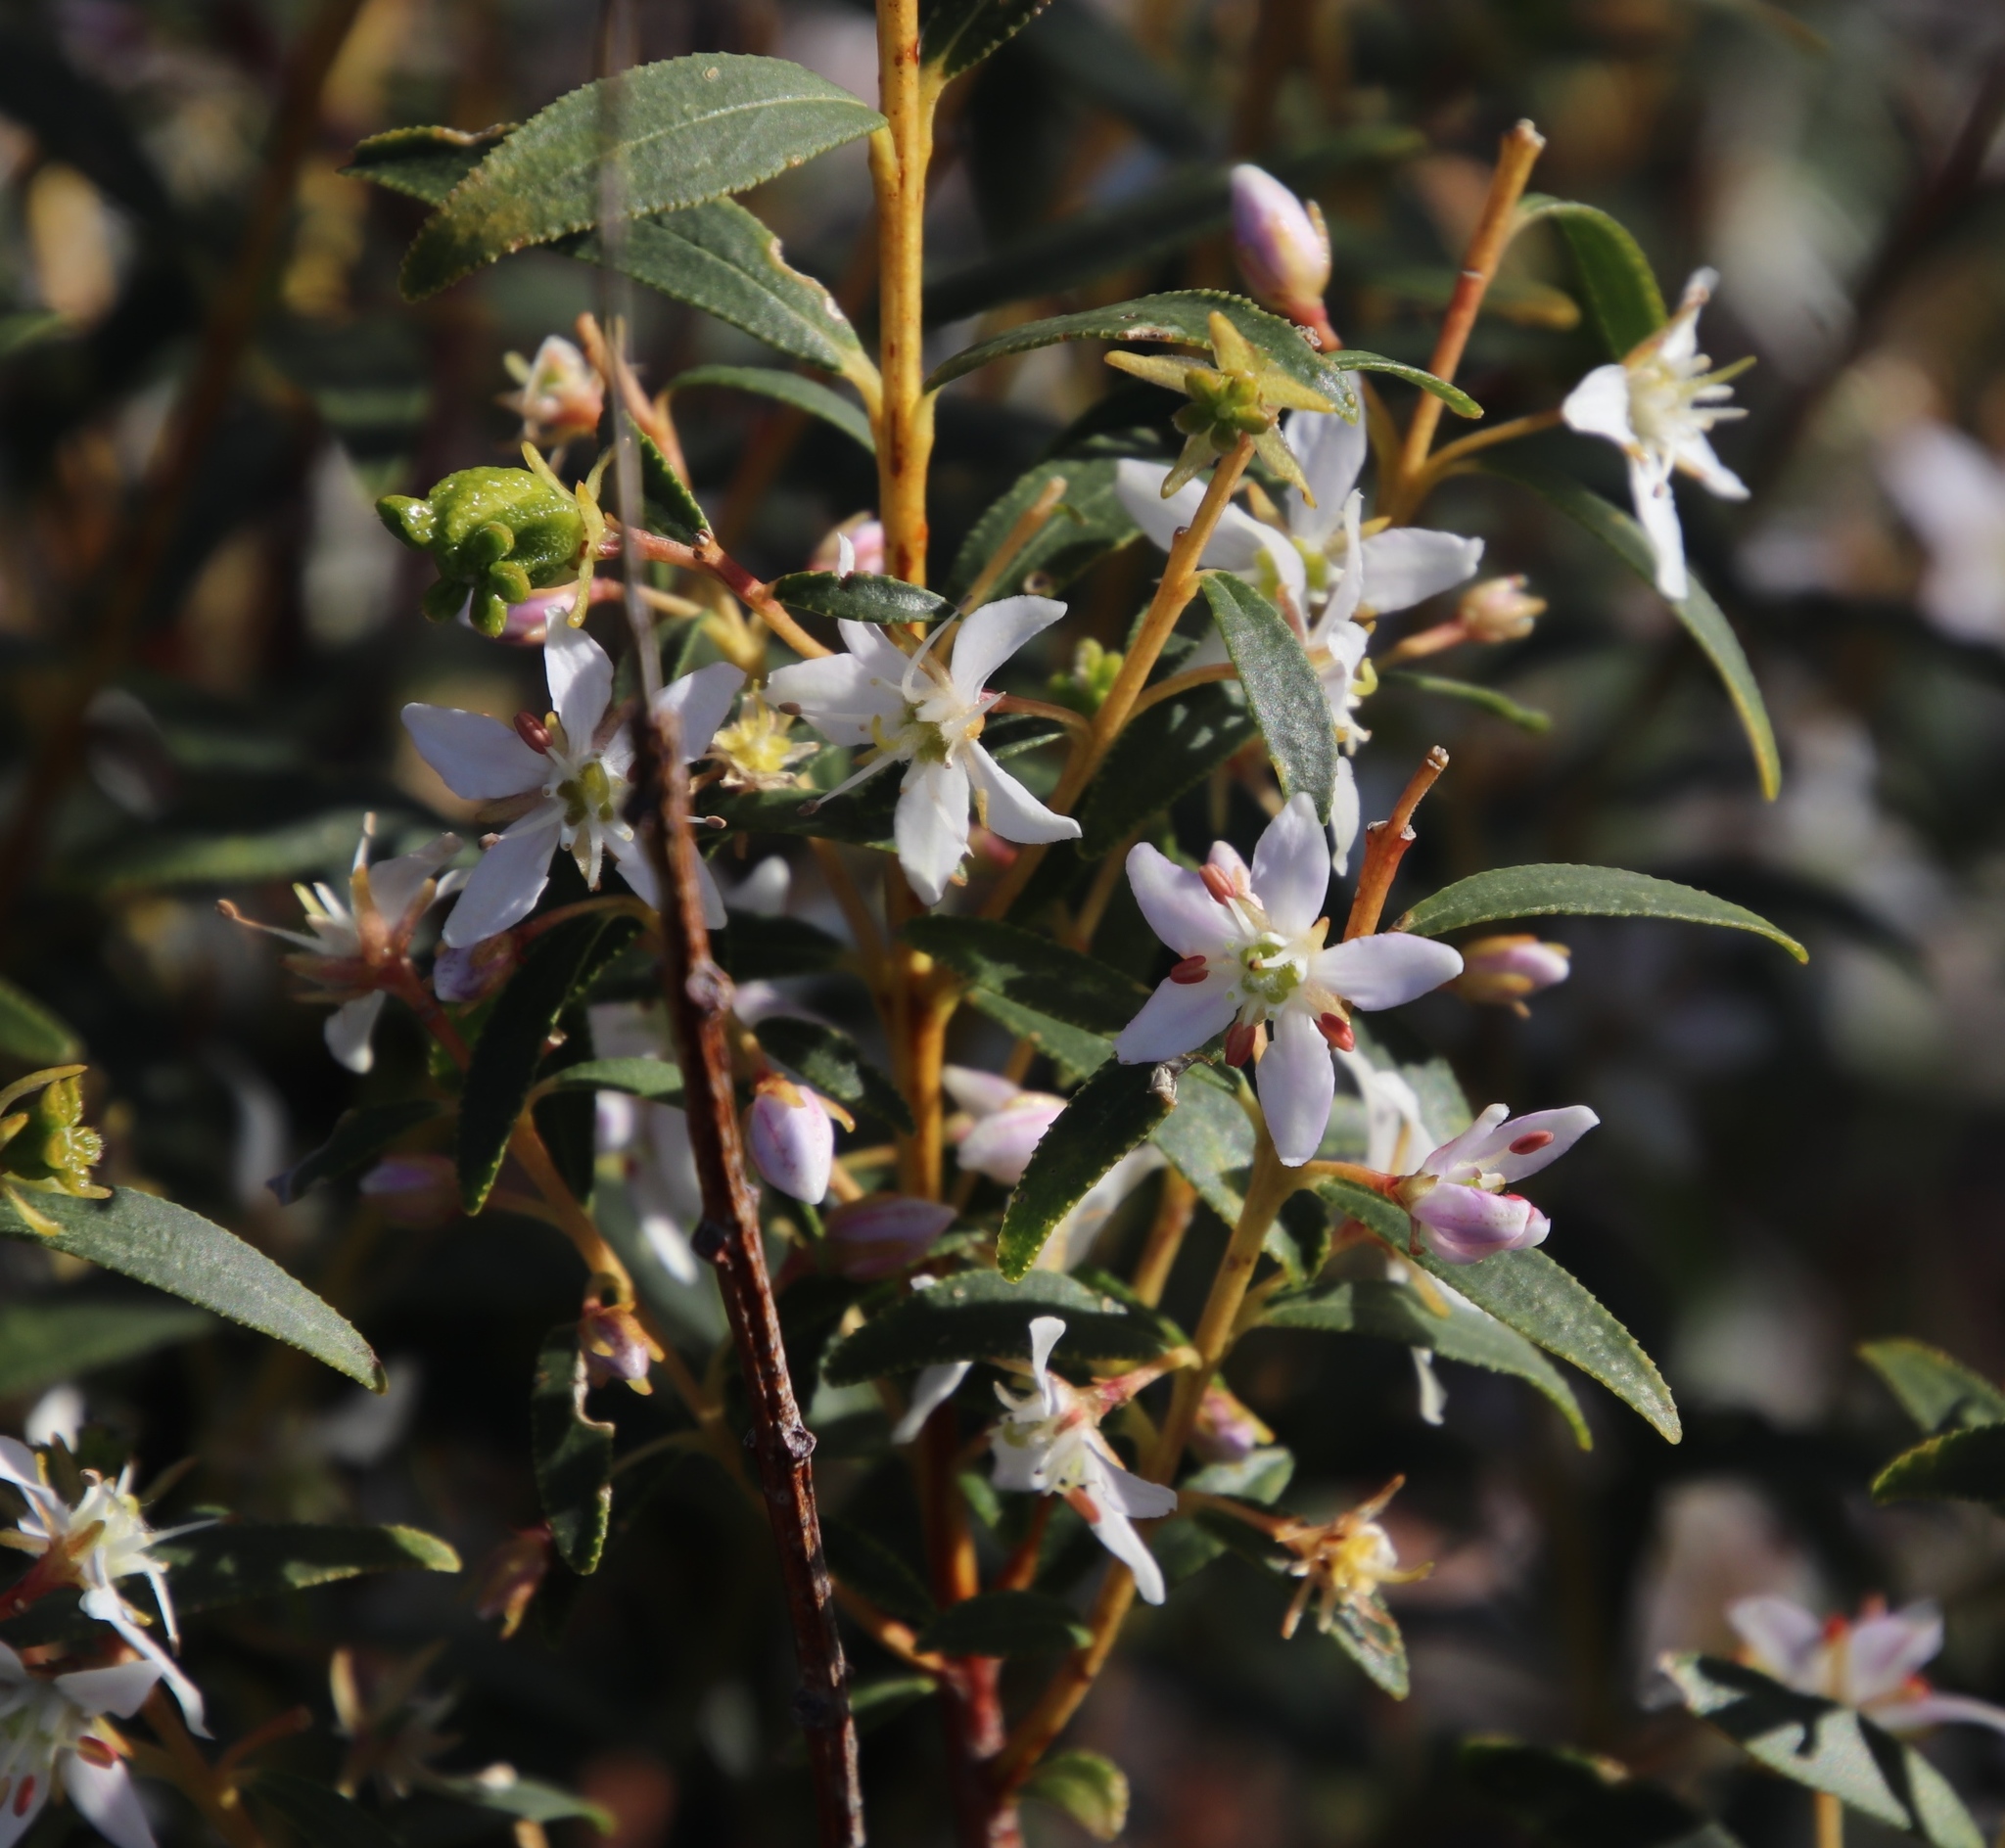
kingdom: Plantae
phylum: Tracheophyta
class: Magnoliopsida
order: Sapindales
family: Rutaceae
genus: Agathosma
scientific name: Agathosma betulina
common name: Mountain buchu
